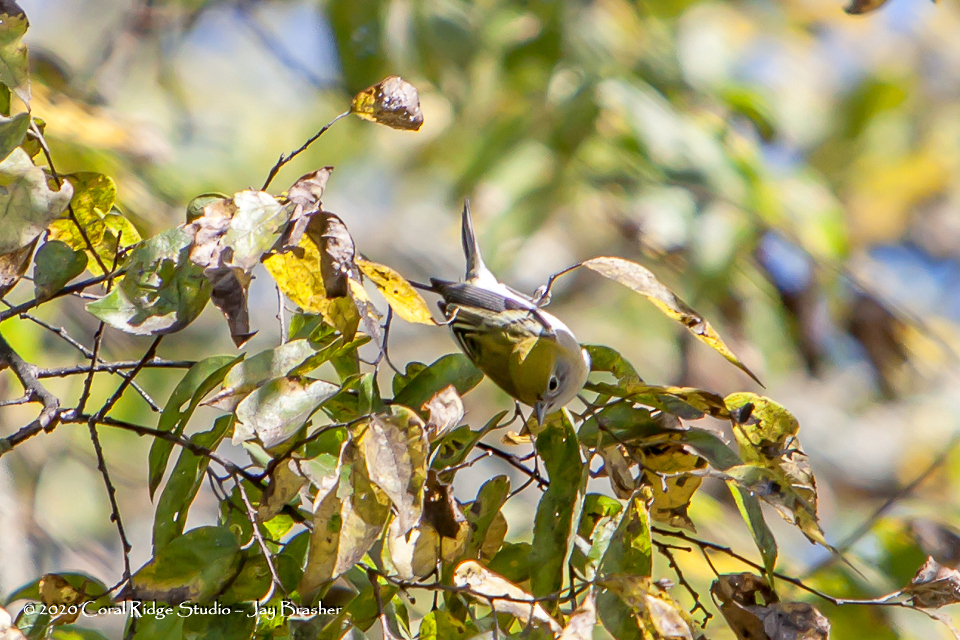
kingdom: Animalia
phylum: Chordata
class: Aves
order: Passeriformes
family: Parulidae
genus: Setophaga
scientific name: Setophaga pensylvanica
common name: Chestnut-sided warbler
